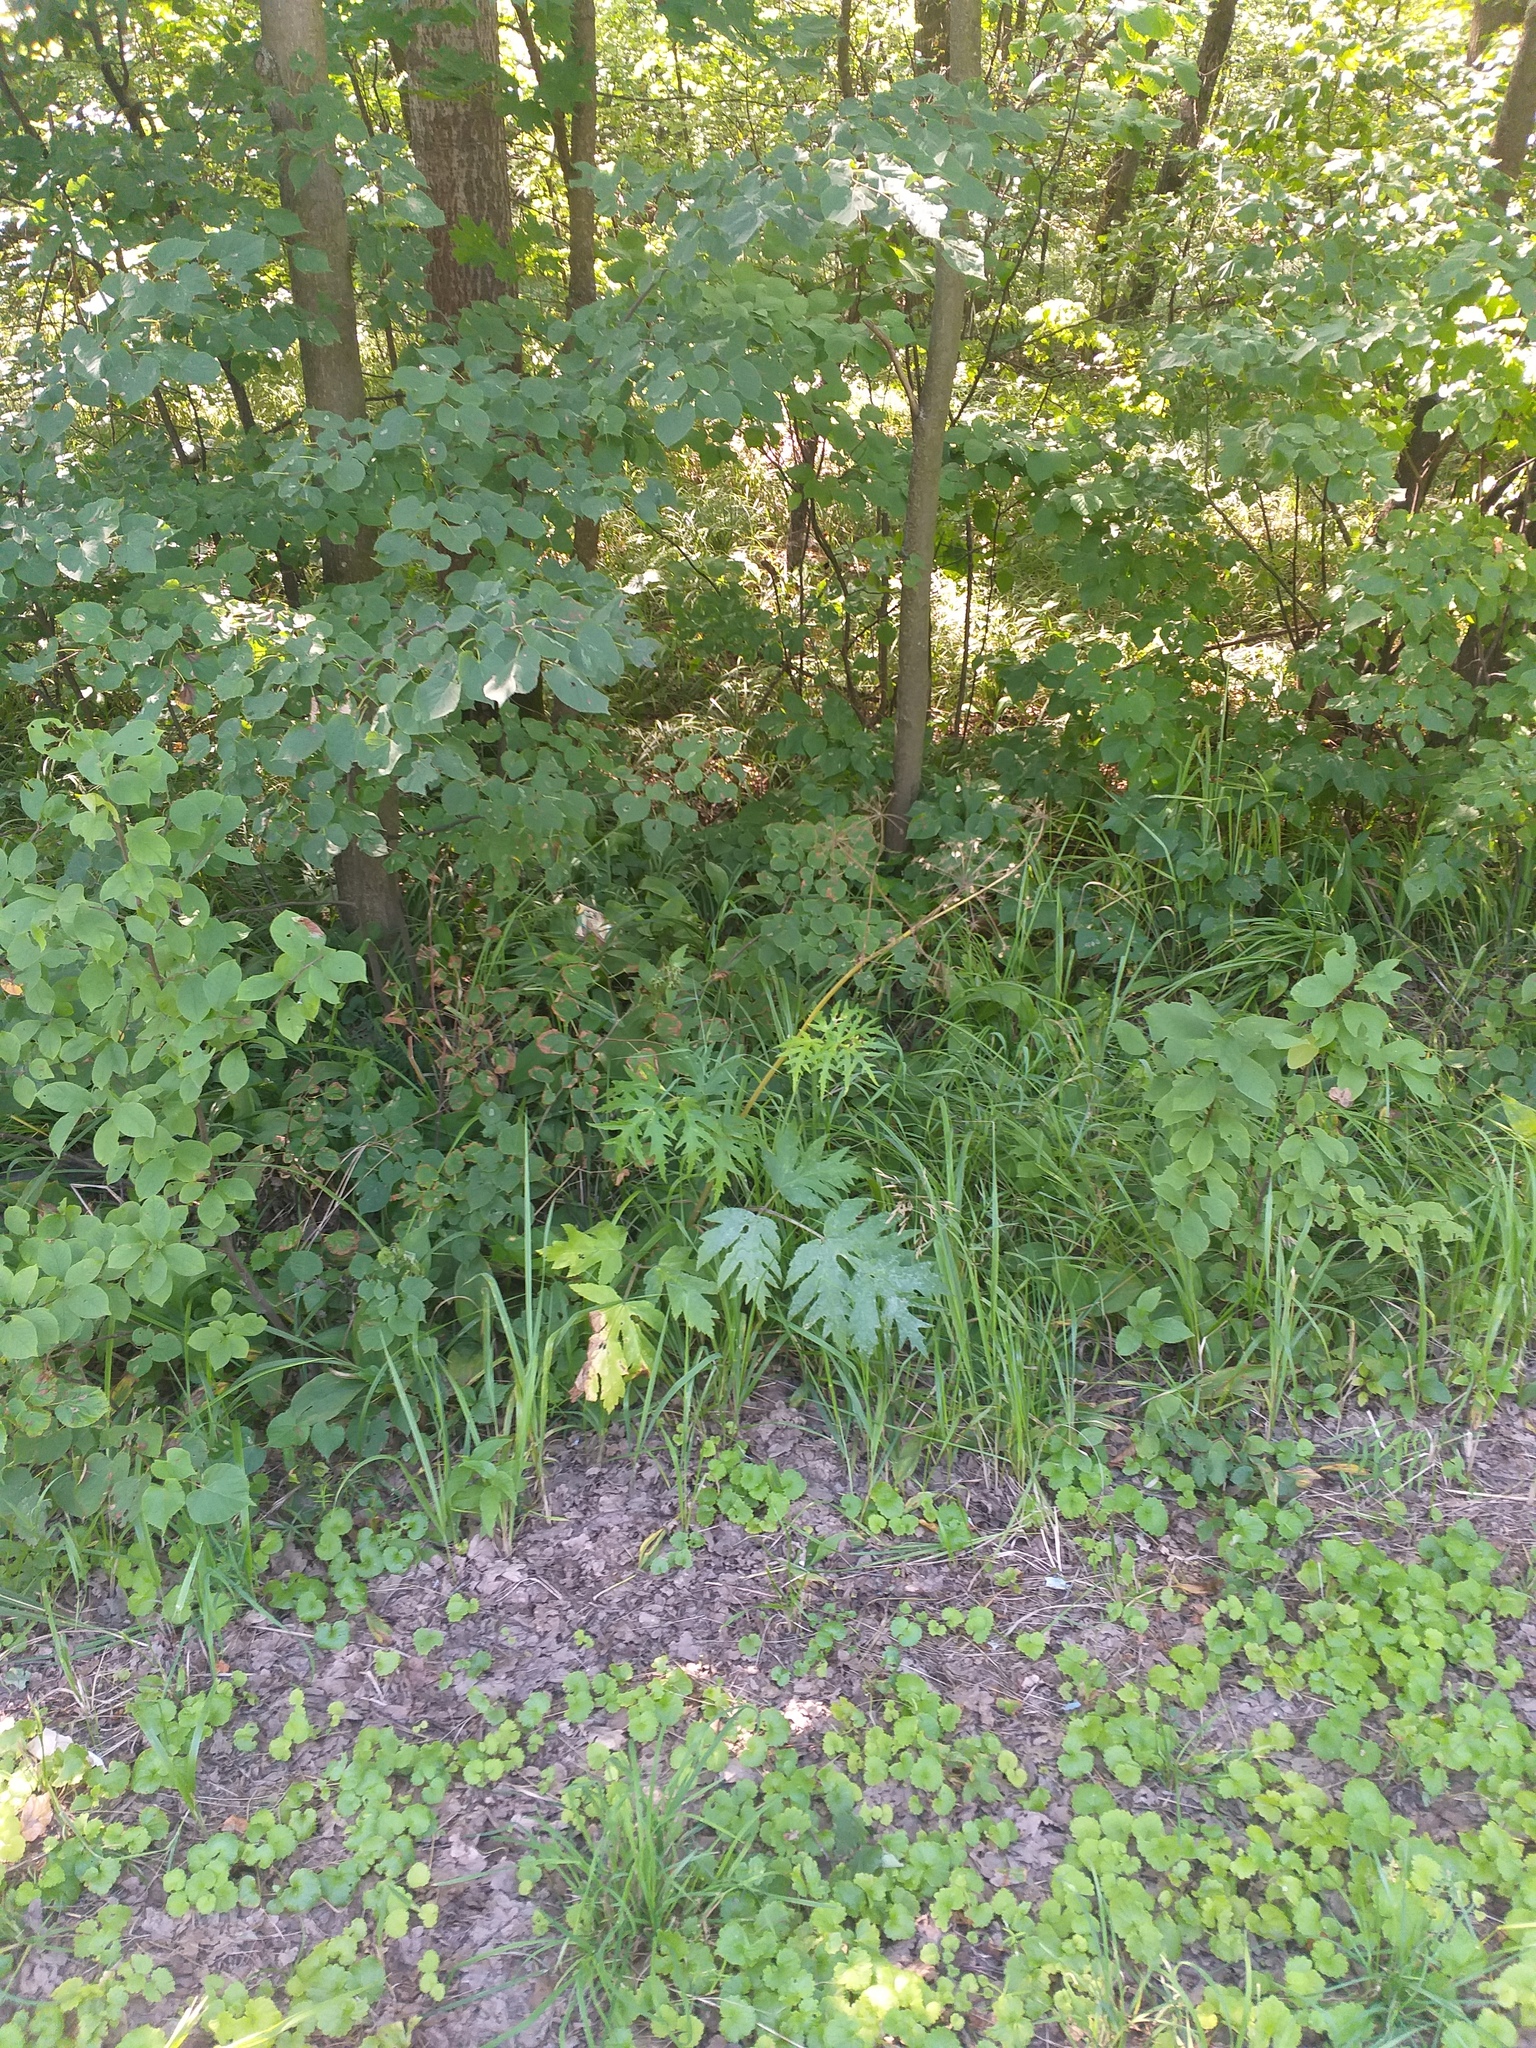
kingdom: Plantae
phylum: Tracheophyta
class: Magnoliopsida
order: Apiales
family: Apiaceae
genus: Heracleum
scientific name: Heracleum sphondylium
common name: Hogweed
